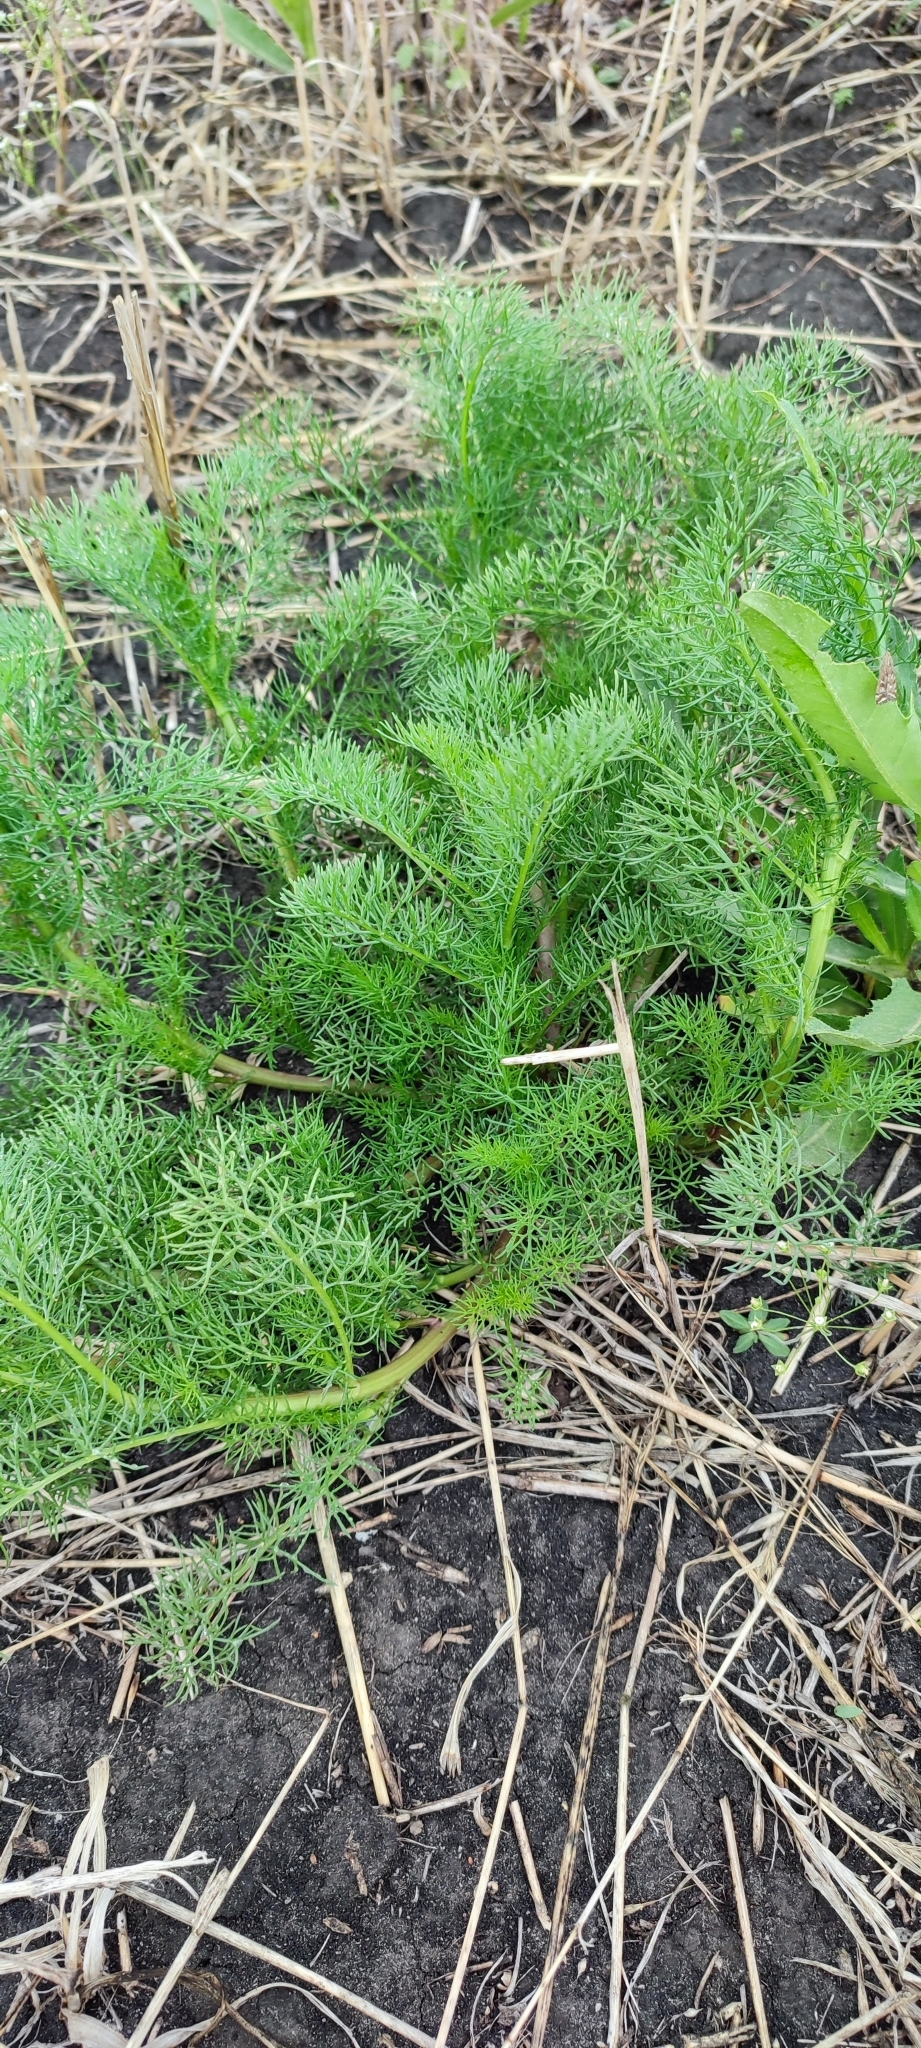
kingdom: Plantae
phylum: Tracheophyta
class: Magnoliopsida
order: Asterales
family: Asteraceae
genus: Tripleurospermum
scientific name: Tripleurospermum inodorum
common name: Scentless mayweed
